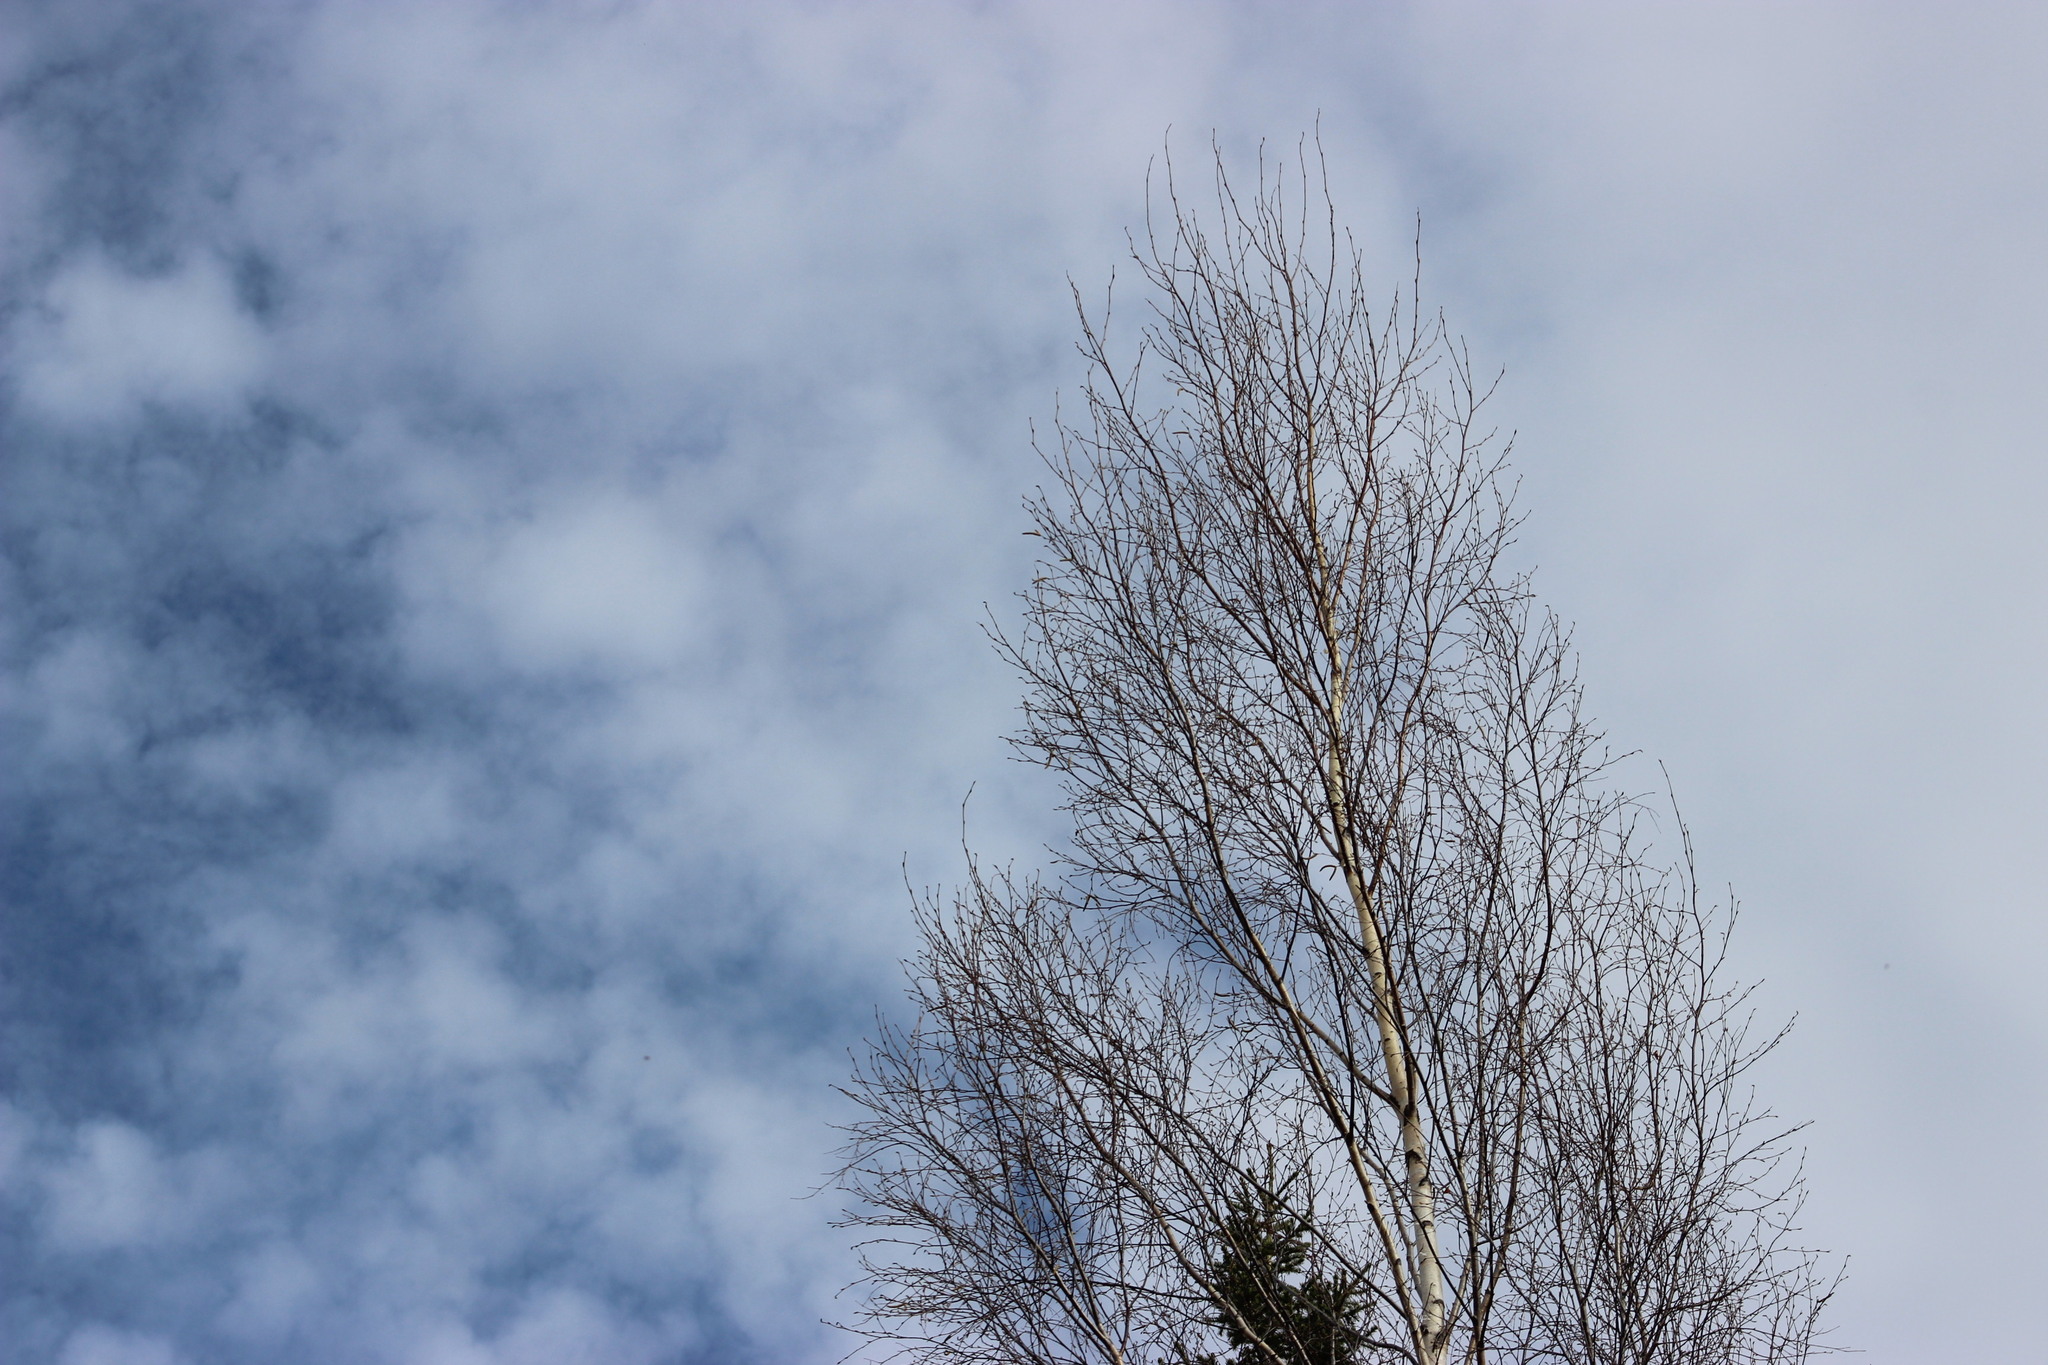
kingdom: Plantae
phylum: Tracheophyta
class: Magnoliopsida
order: Fagales
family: Betulaceae
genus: Betula
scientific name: Betula pubescens
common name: Downy birch
